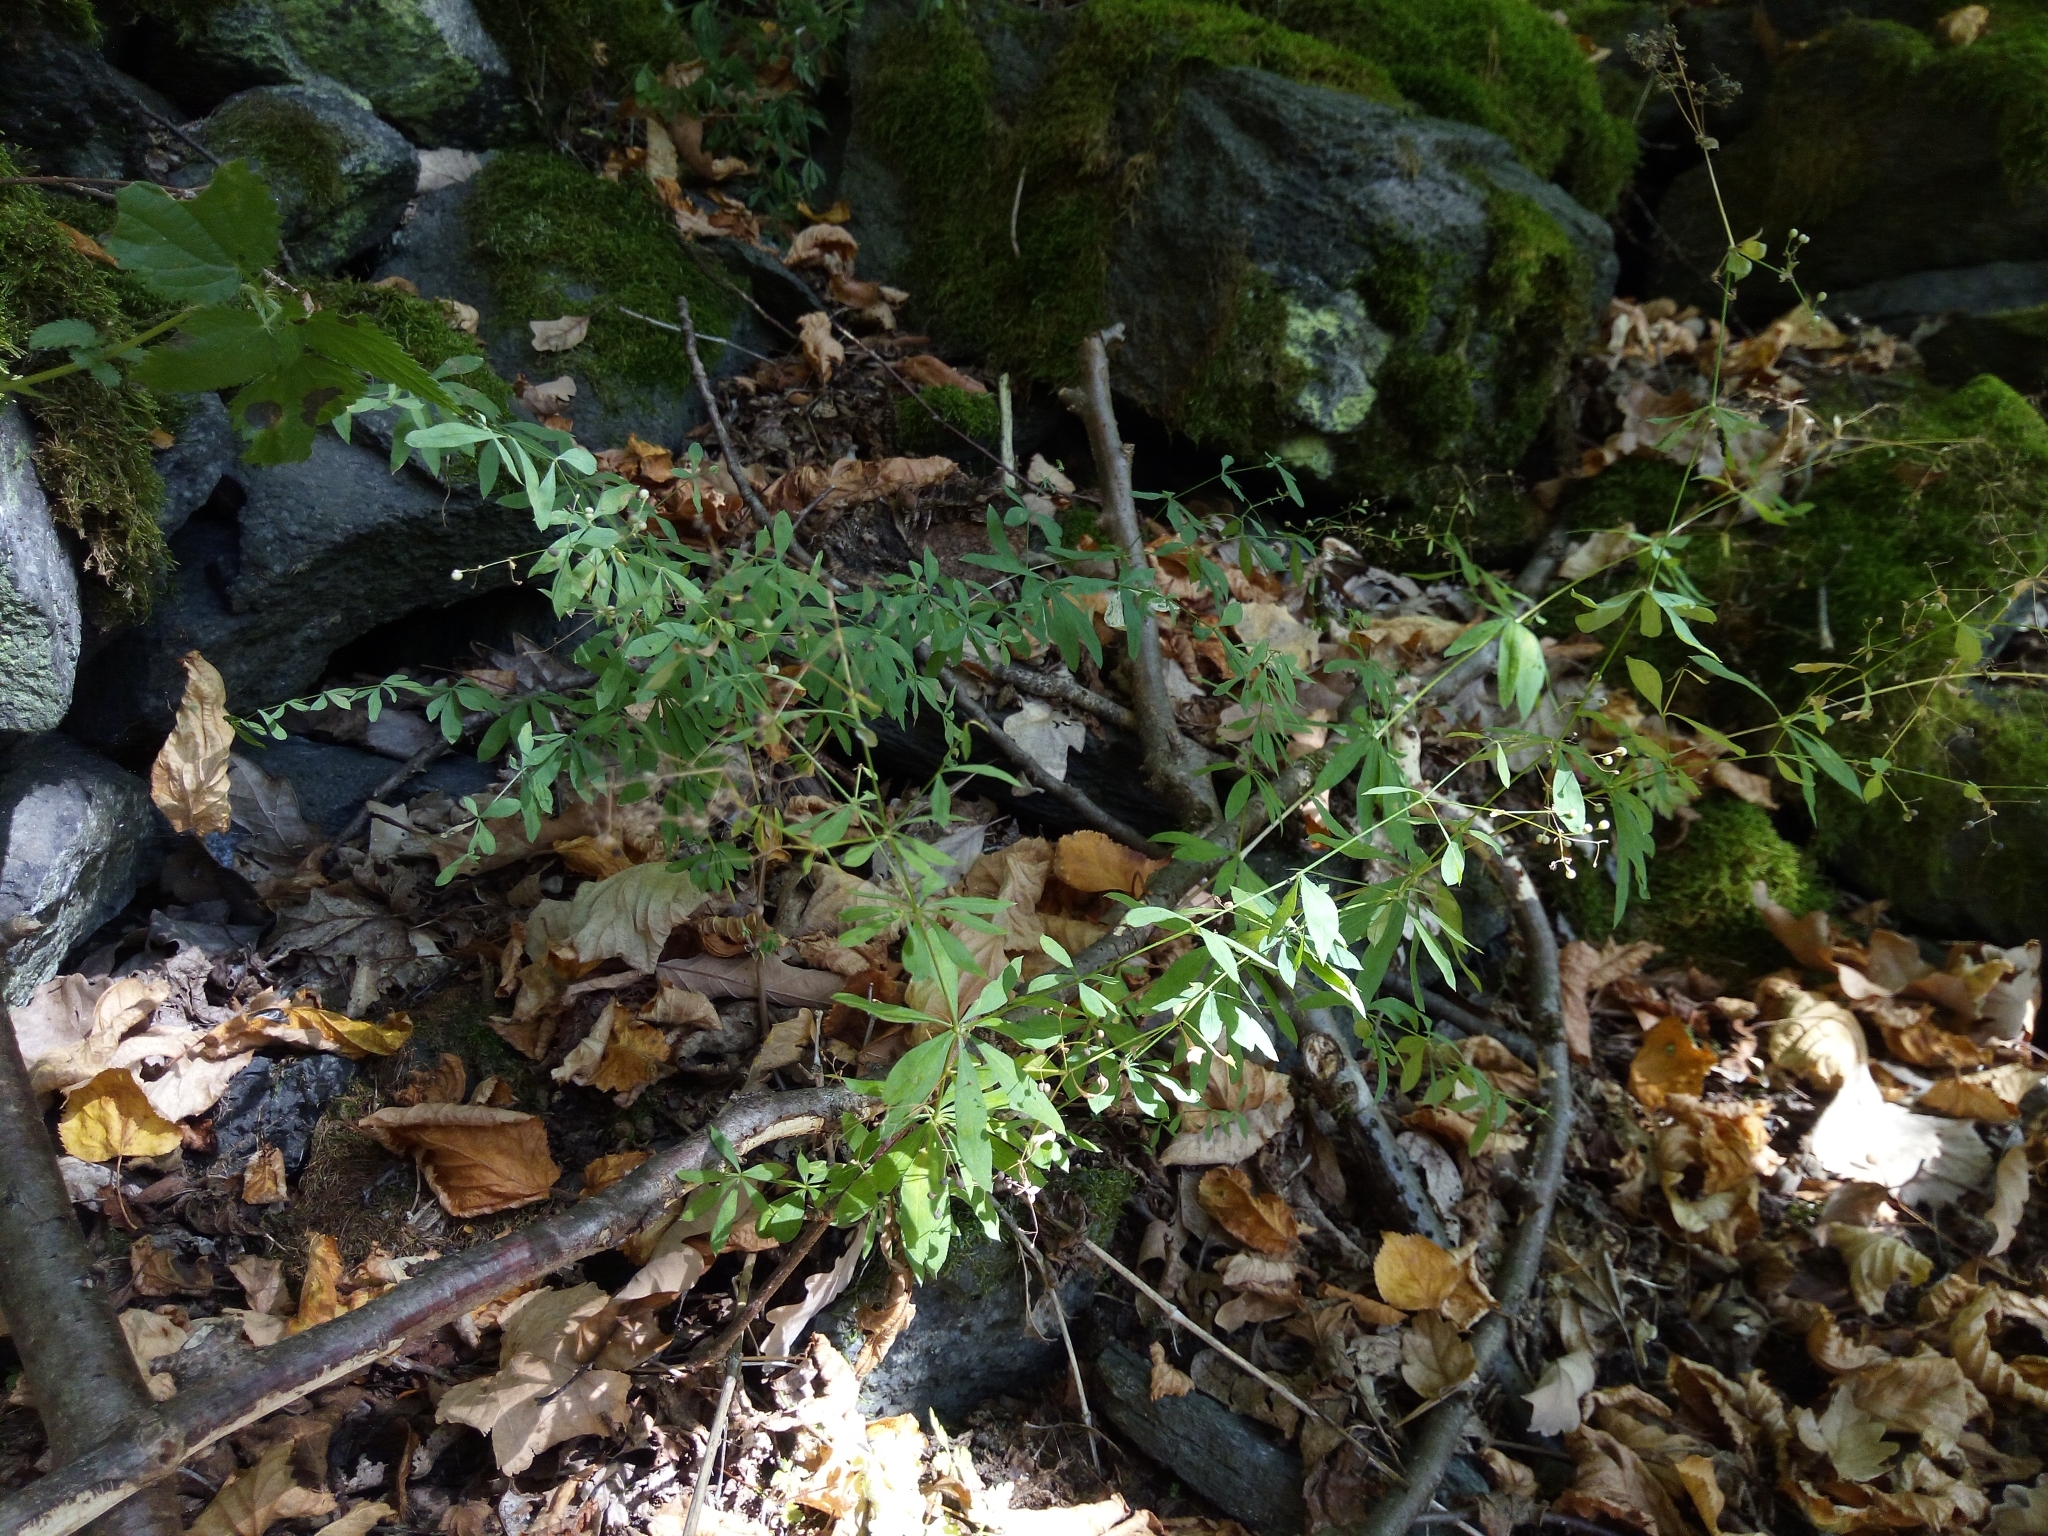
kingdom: Plantae
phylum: Tracheophyta
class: Magnoliopsida
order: Gentianales
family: Rubiaceae
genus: Galium
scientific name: Galium sylvaticum
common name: Wood bedstraw
